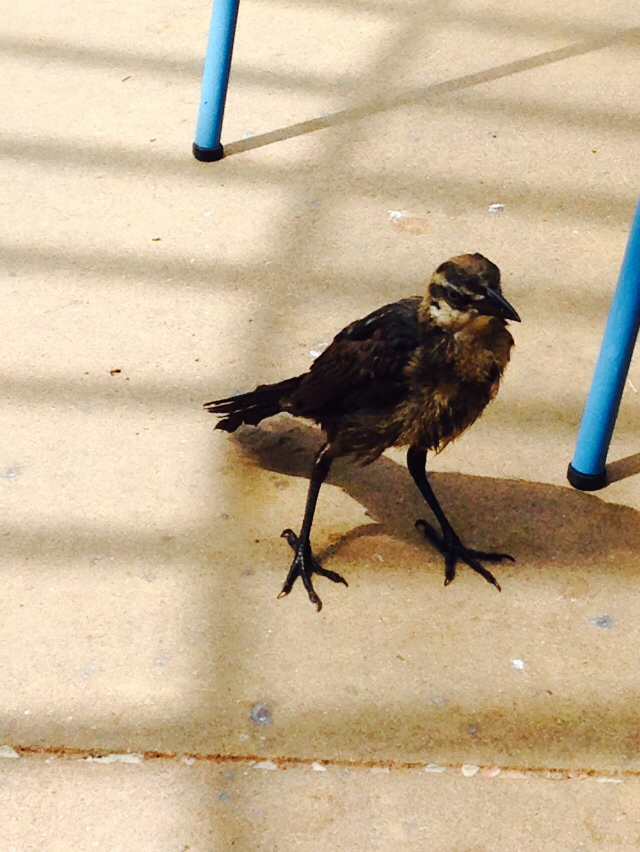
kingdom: Animalia
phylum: Chordata
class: Aves
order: Passeriformes
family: Icteridae
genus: Quiscalus
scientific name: Quiscalus mexicanus
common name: Great-tailed grackle
